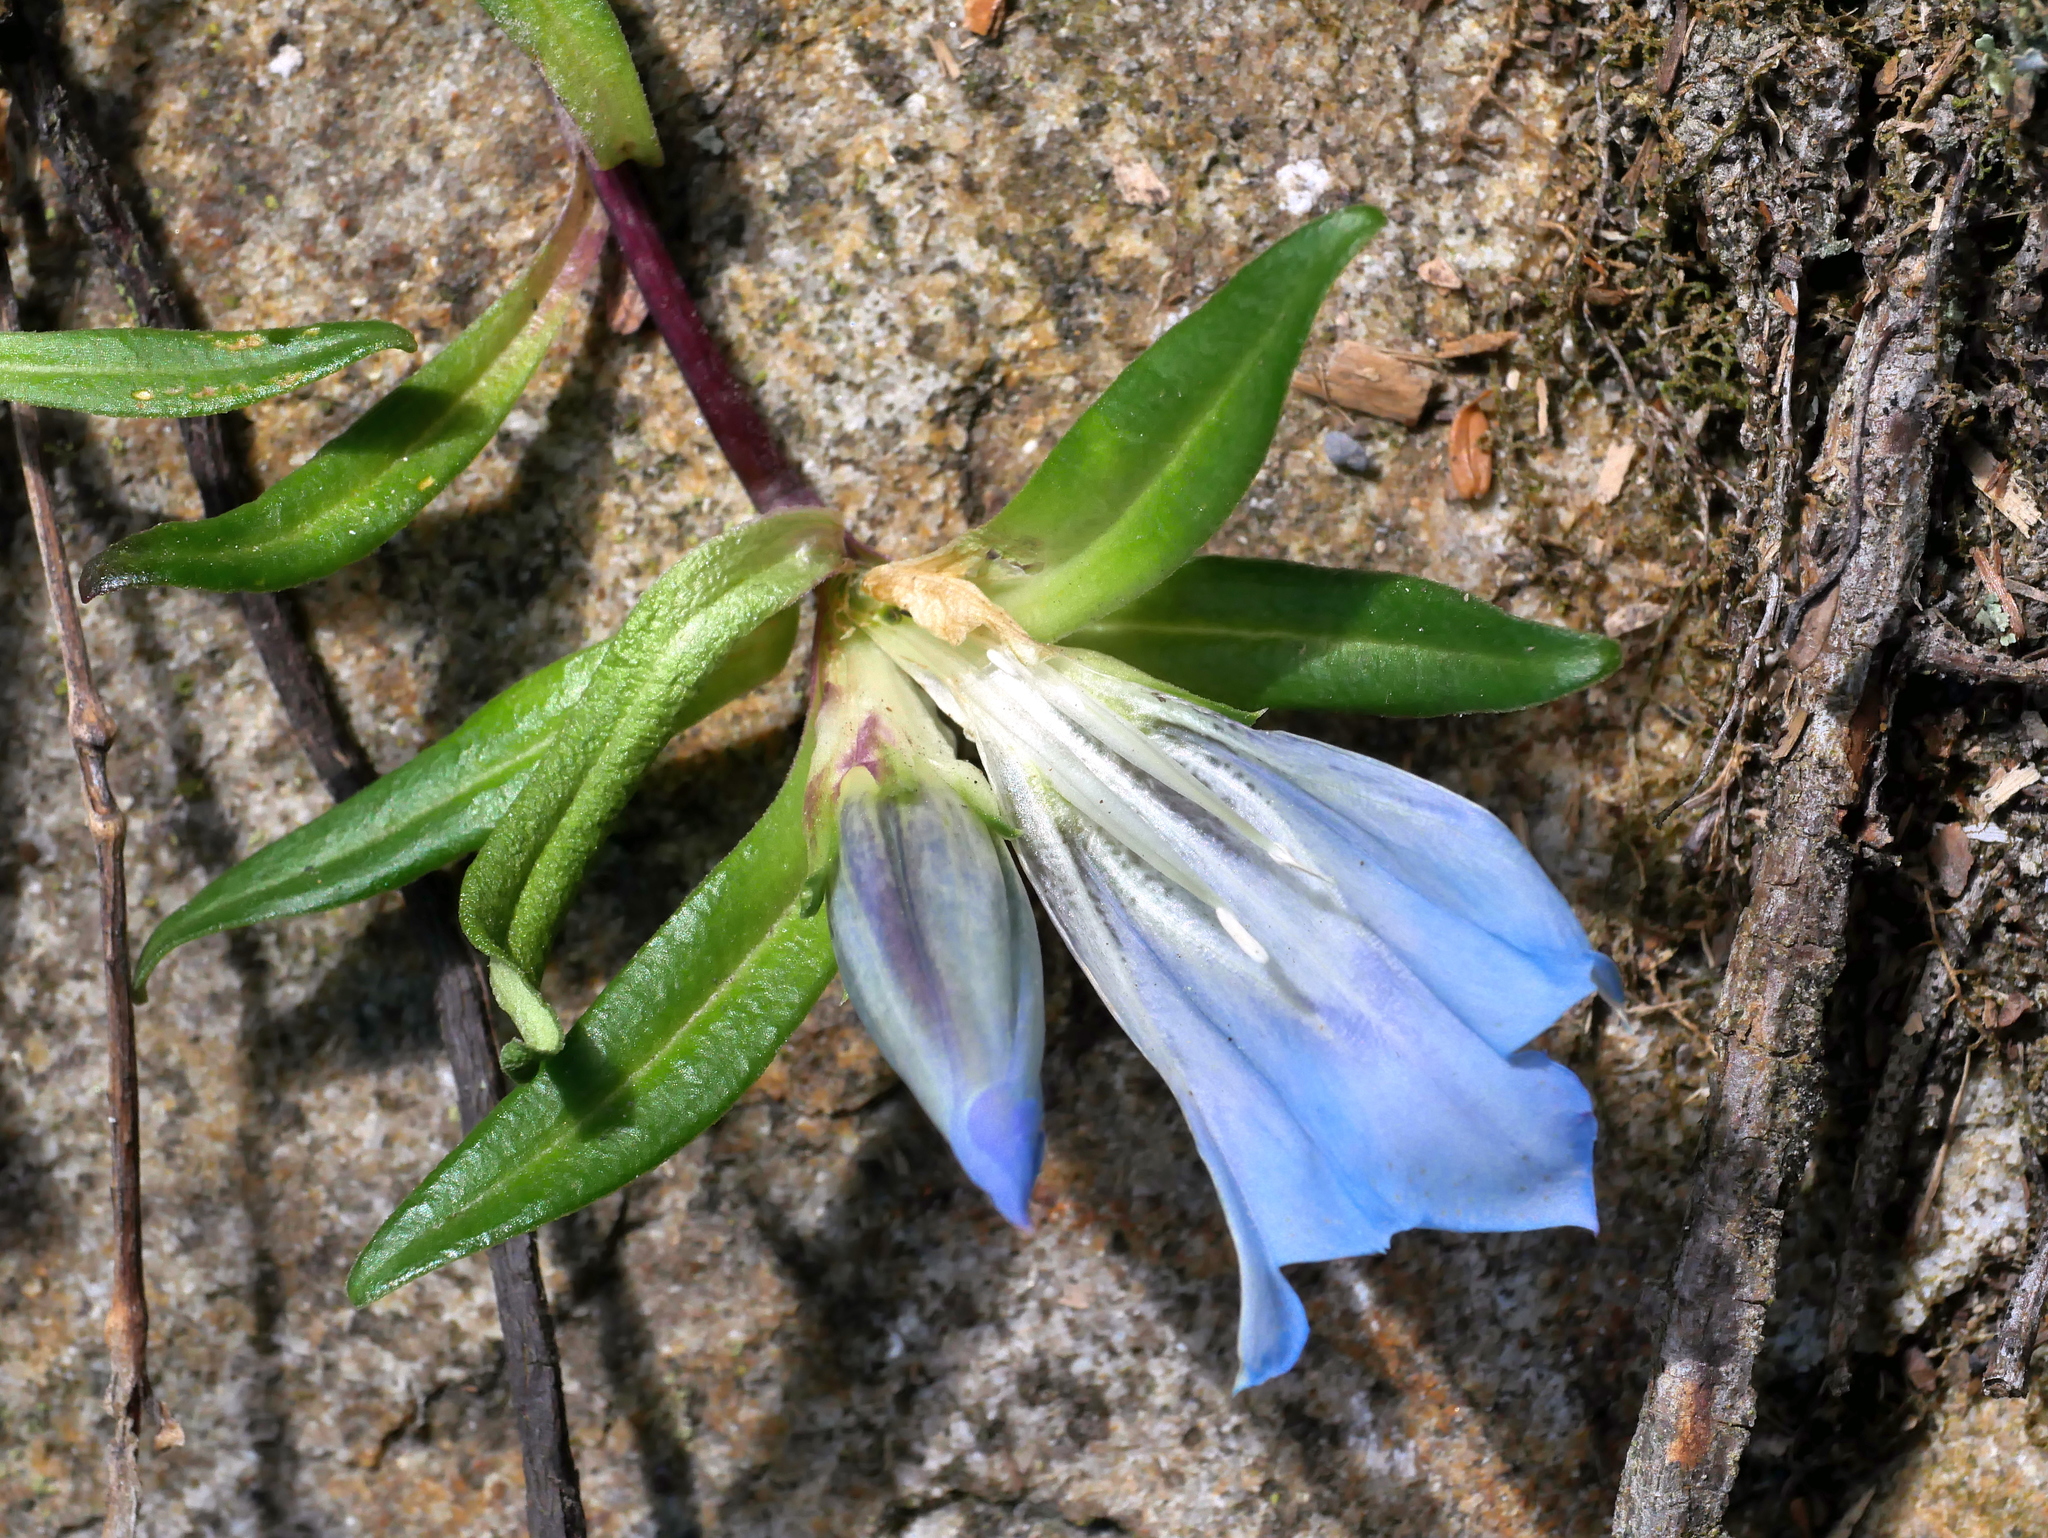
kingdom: Plantae
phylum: Tracheophyta
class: Magnoliopsida
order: Gentianales
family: Gentianaceae
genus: Gentiana
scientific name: Gentiana davidii
